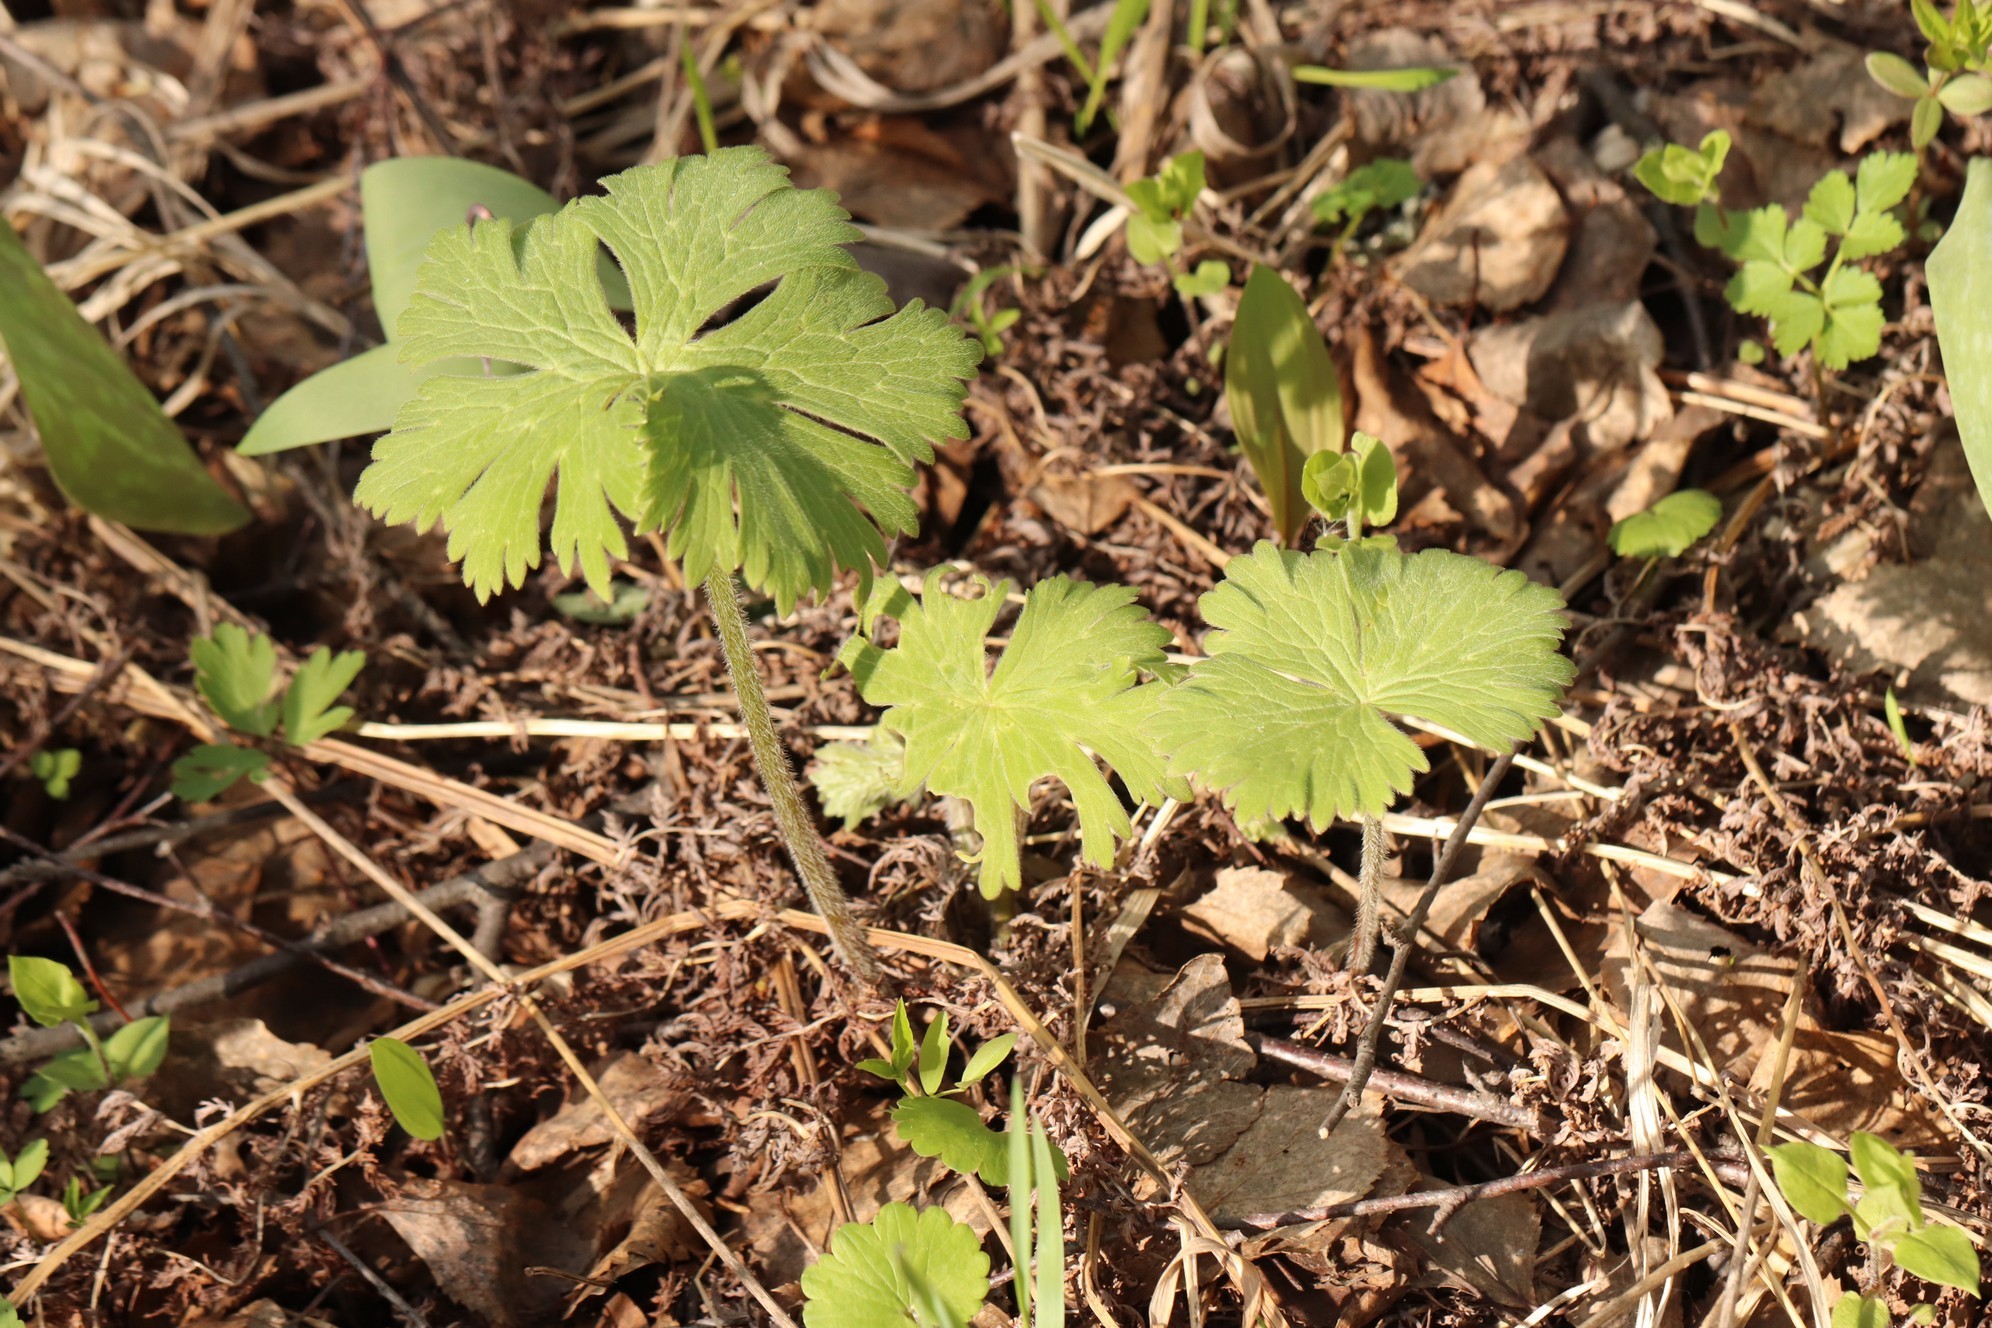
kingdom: Plantae
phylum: Tracheophyta
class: Magnoliopsida
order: Ranunculales
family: Ranunculaceae
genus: Aconitum
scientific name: Aconitum septentrionale
